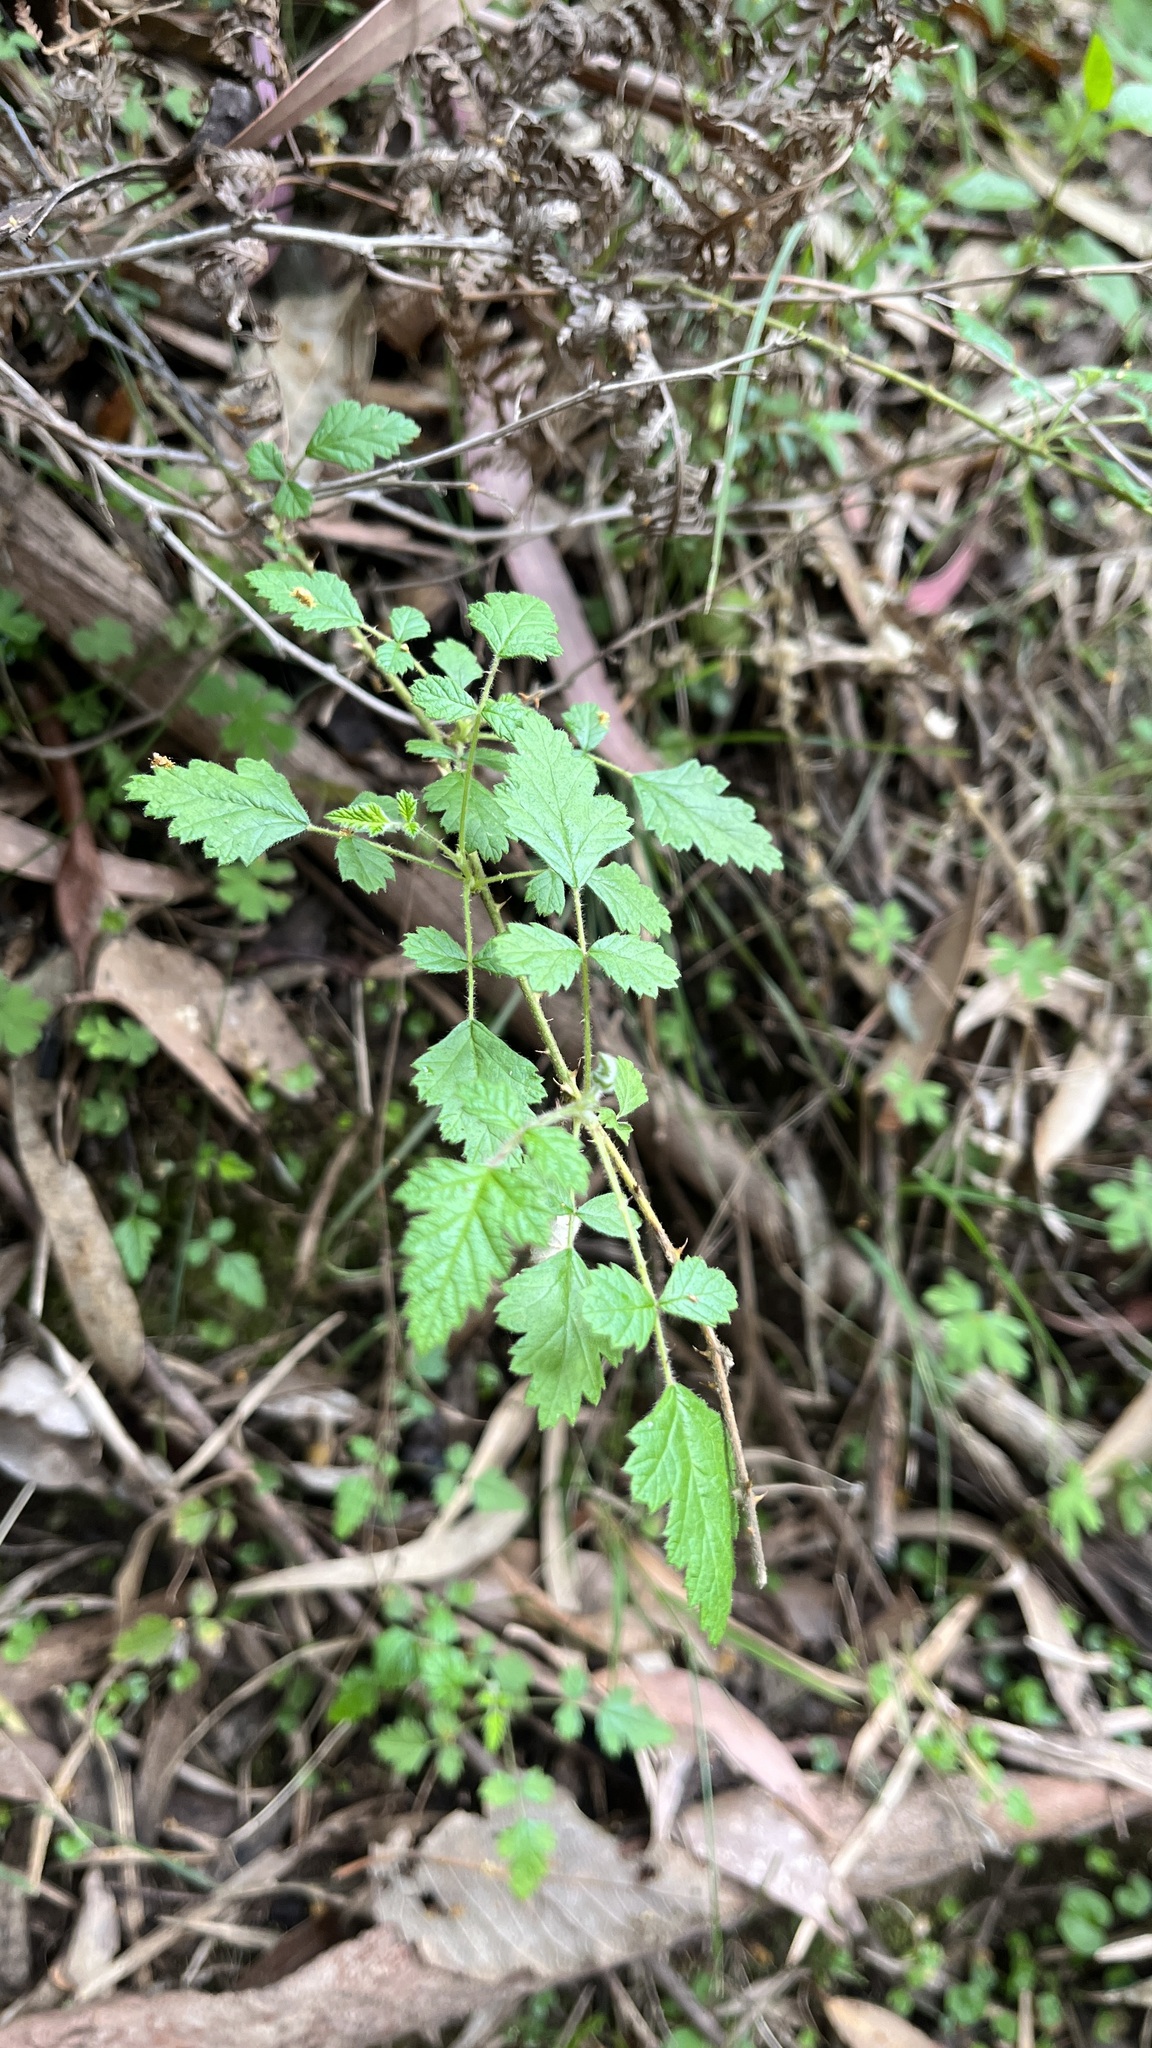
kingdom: Plantae
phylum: Tracheophyta
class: Magnoliopsida
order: Rosales
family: Rosaceae
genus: Rubus
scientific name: Rubus parvifolius
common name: Threeleaf blackberry
